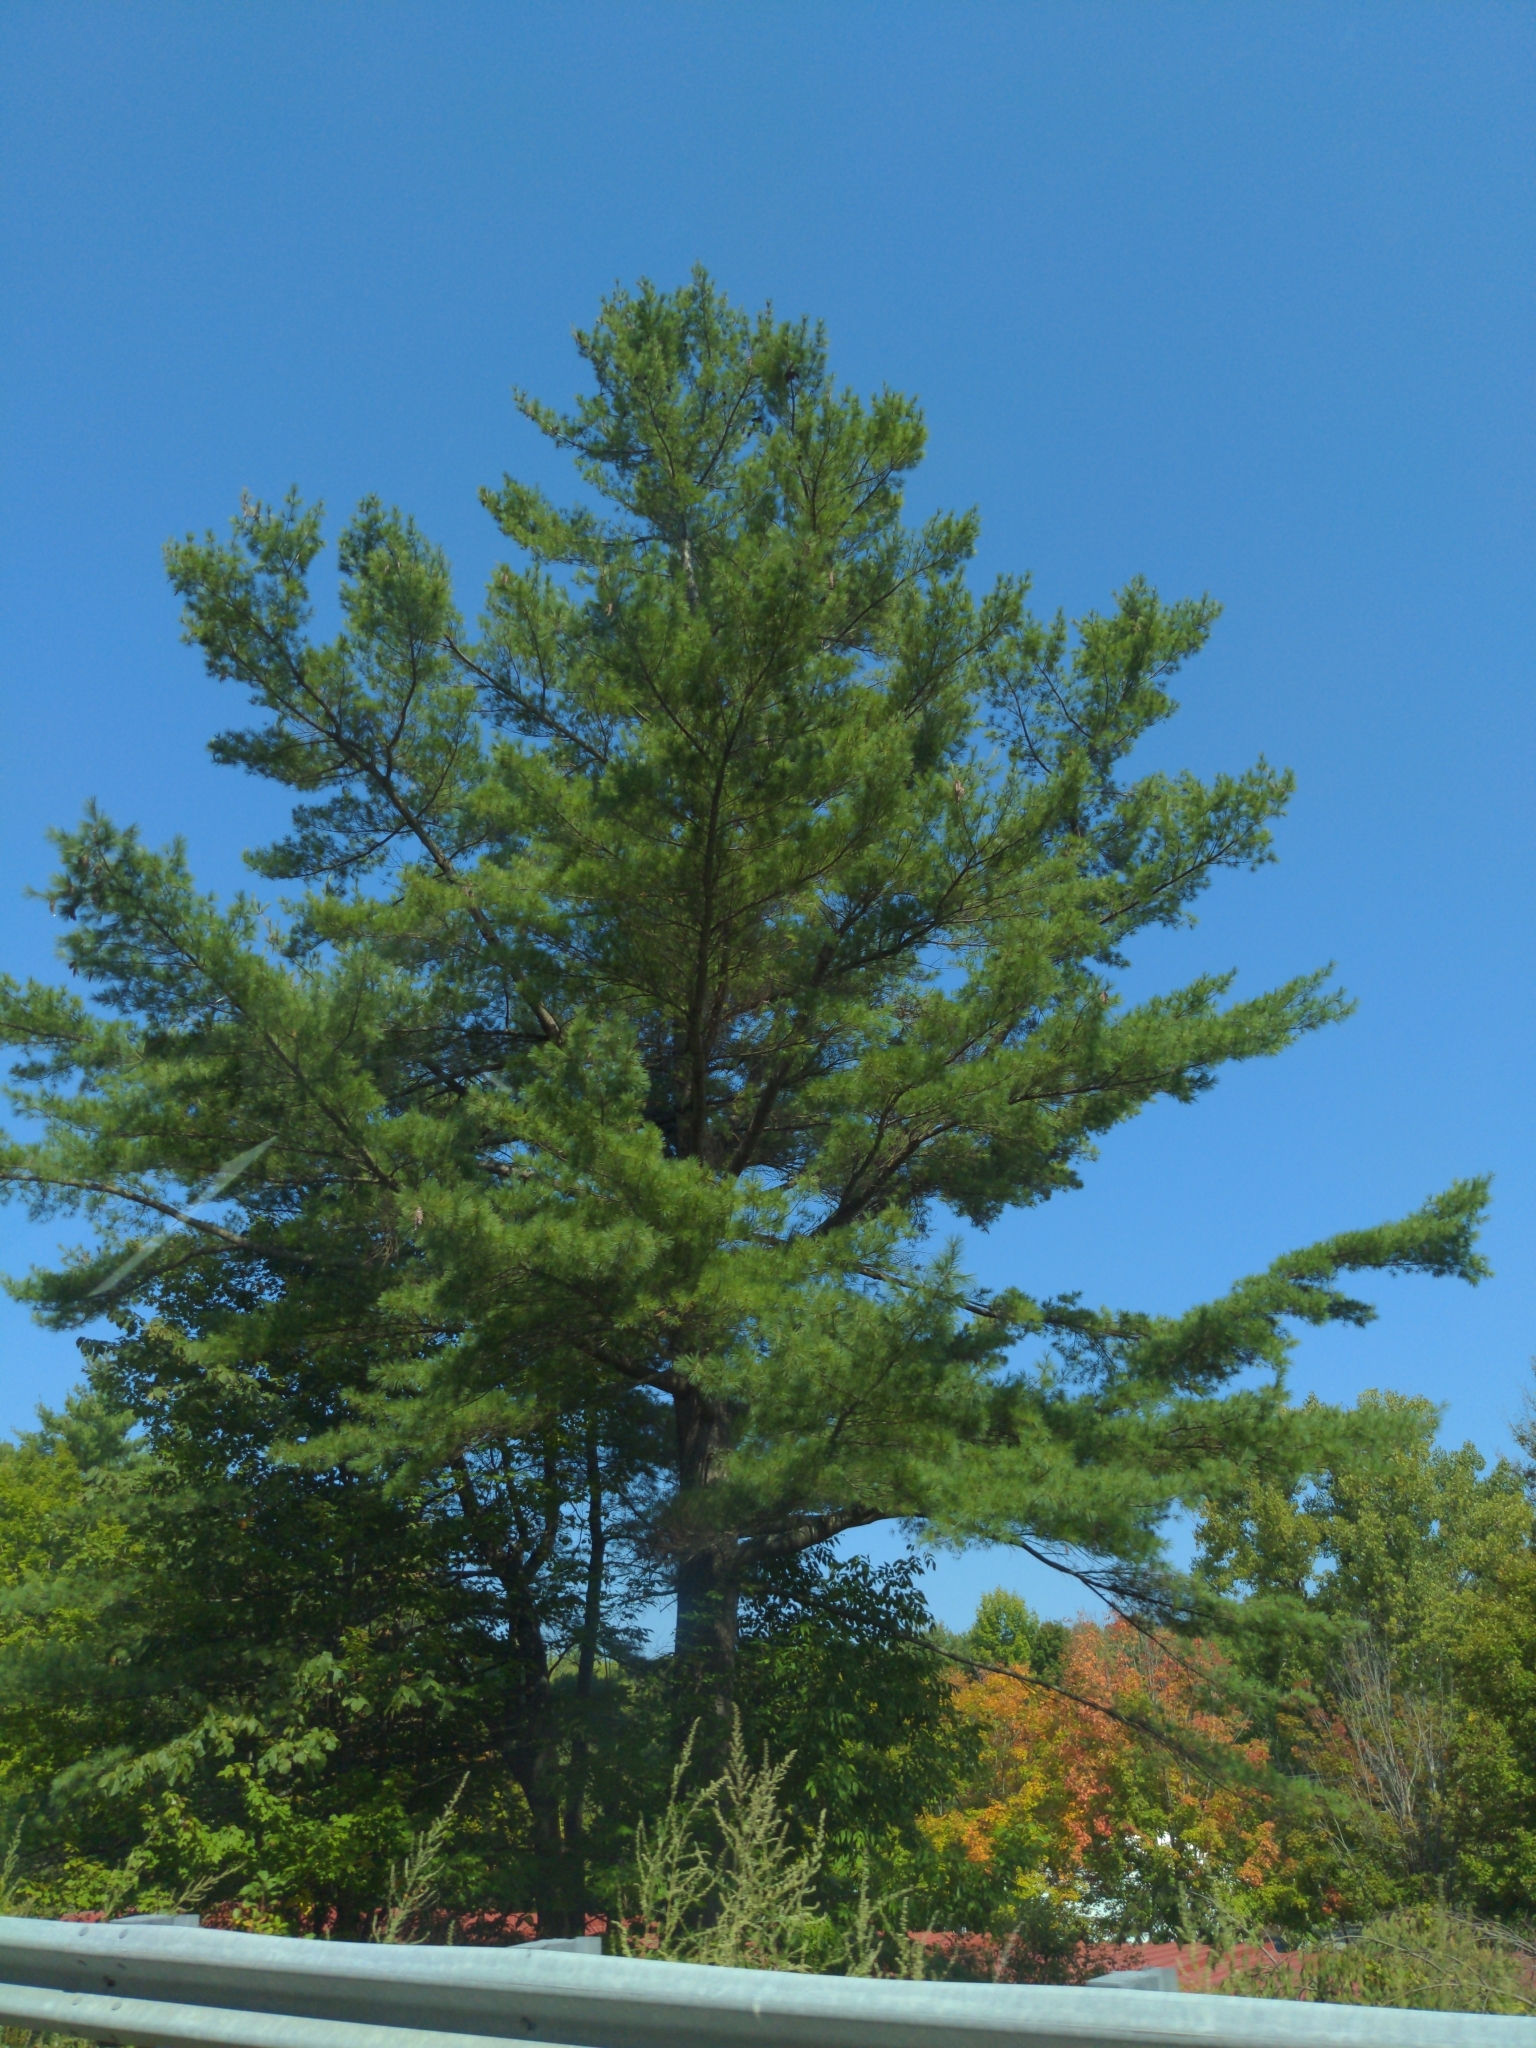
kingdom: Plantae
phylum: Tracheophyta
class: Pinopsida
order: Pinales
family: Pinaceae
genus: Pinus
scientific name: Pinus strobus
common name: Weymouth pine
